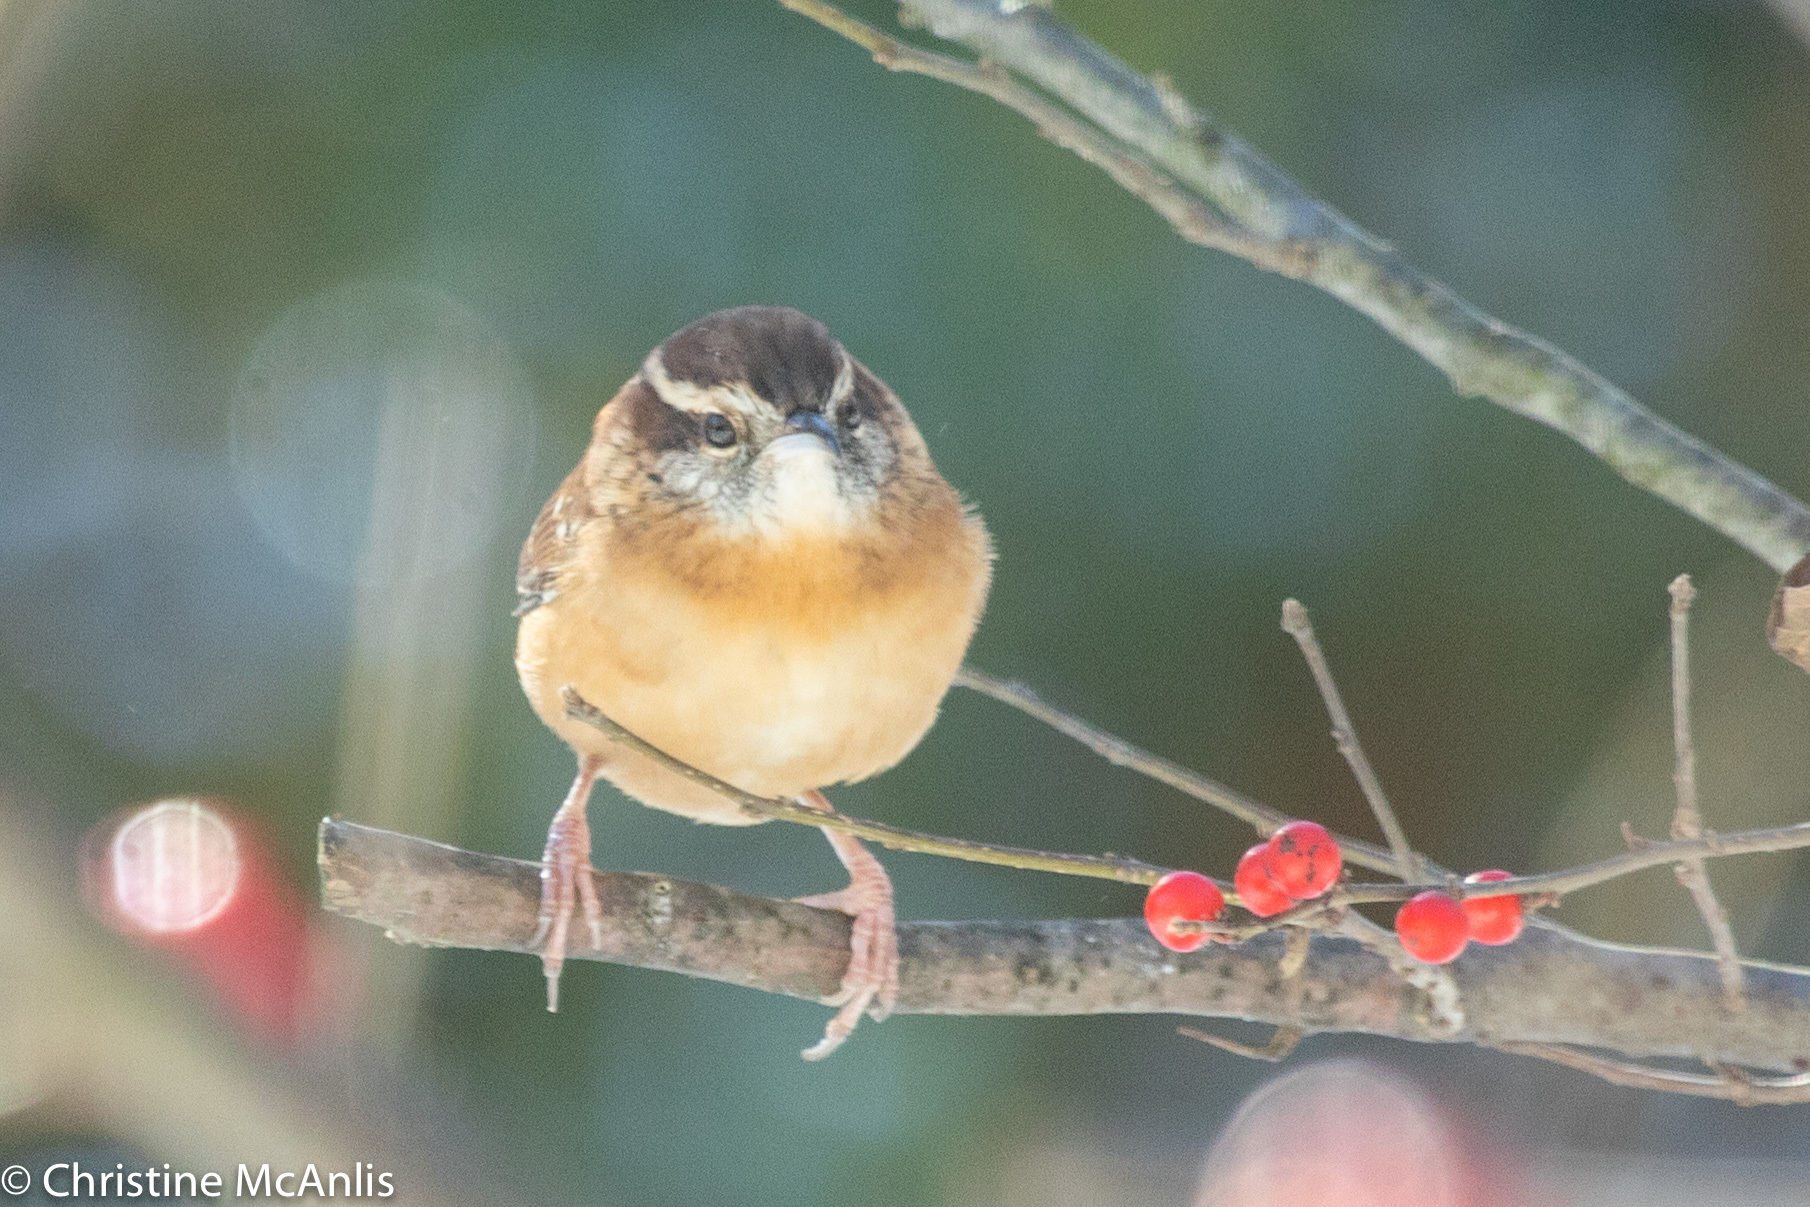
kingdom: Animalia
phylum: Chordata
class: Aves
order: Passeriformes
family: Troglodytidae
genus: Thryothorus
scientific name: Thryothorus ludovicianus
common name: Carolina wren
